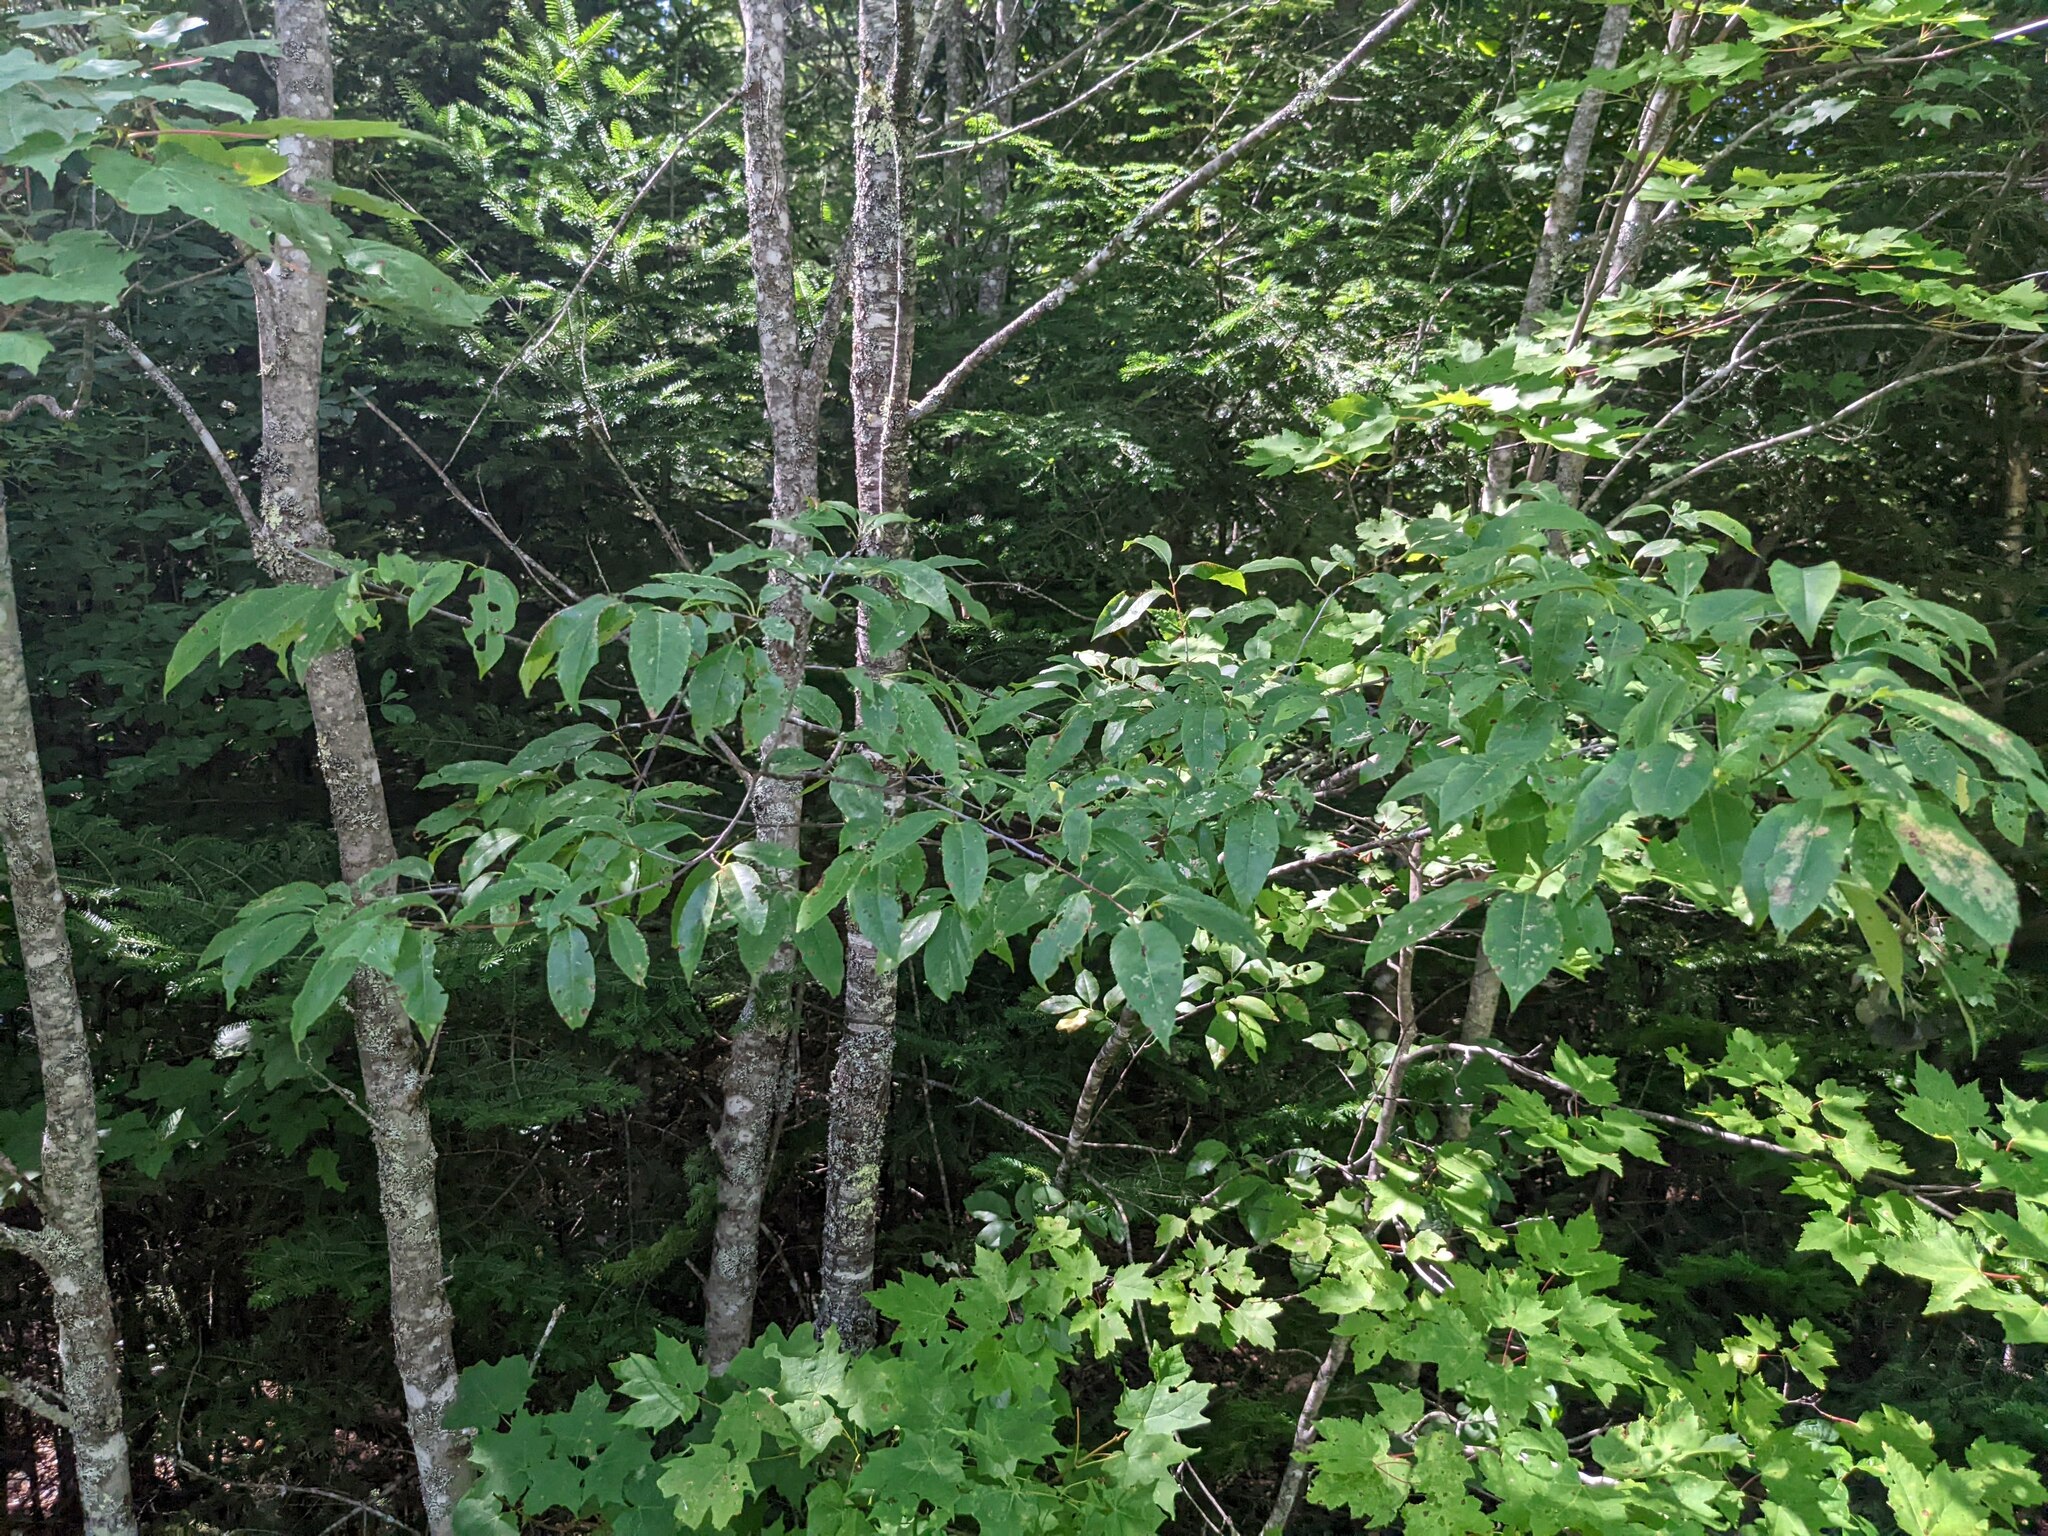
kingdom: Plantae
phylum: Tracheophyta
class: Magnoliopsida
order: Rosales
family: Rosaceae
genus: Prunus
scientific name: Prunus serotina
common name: Black cherry
